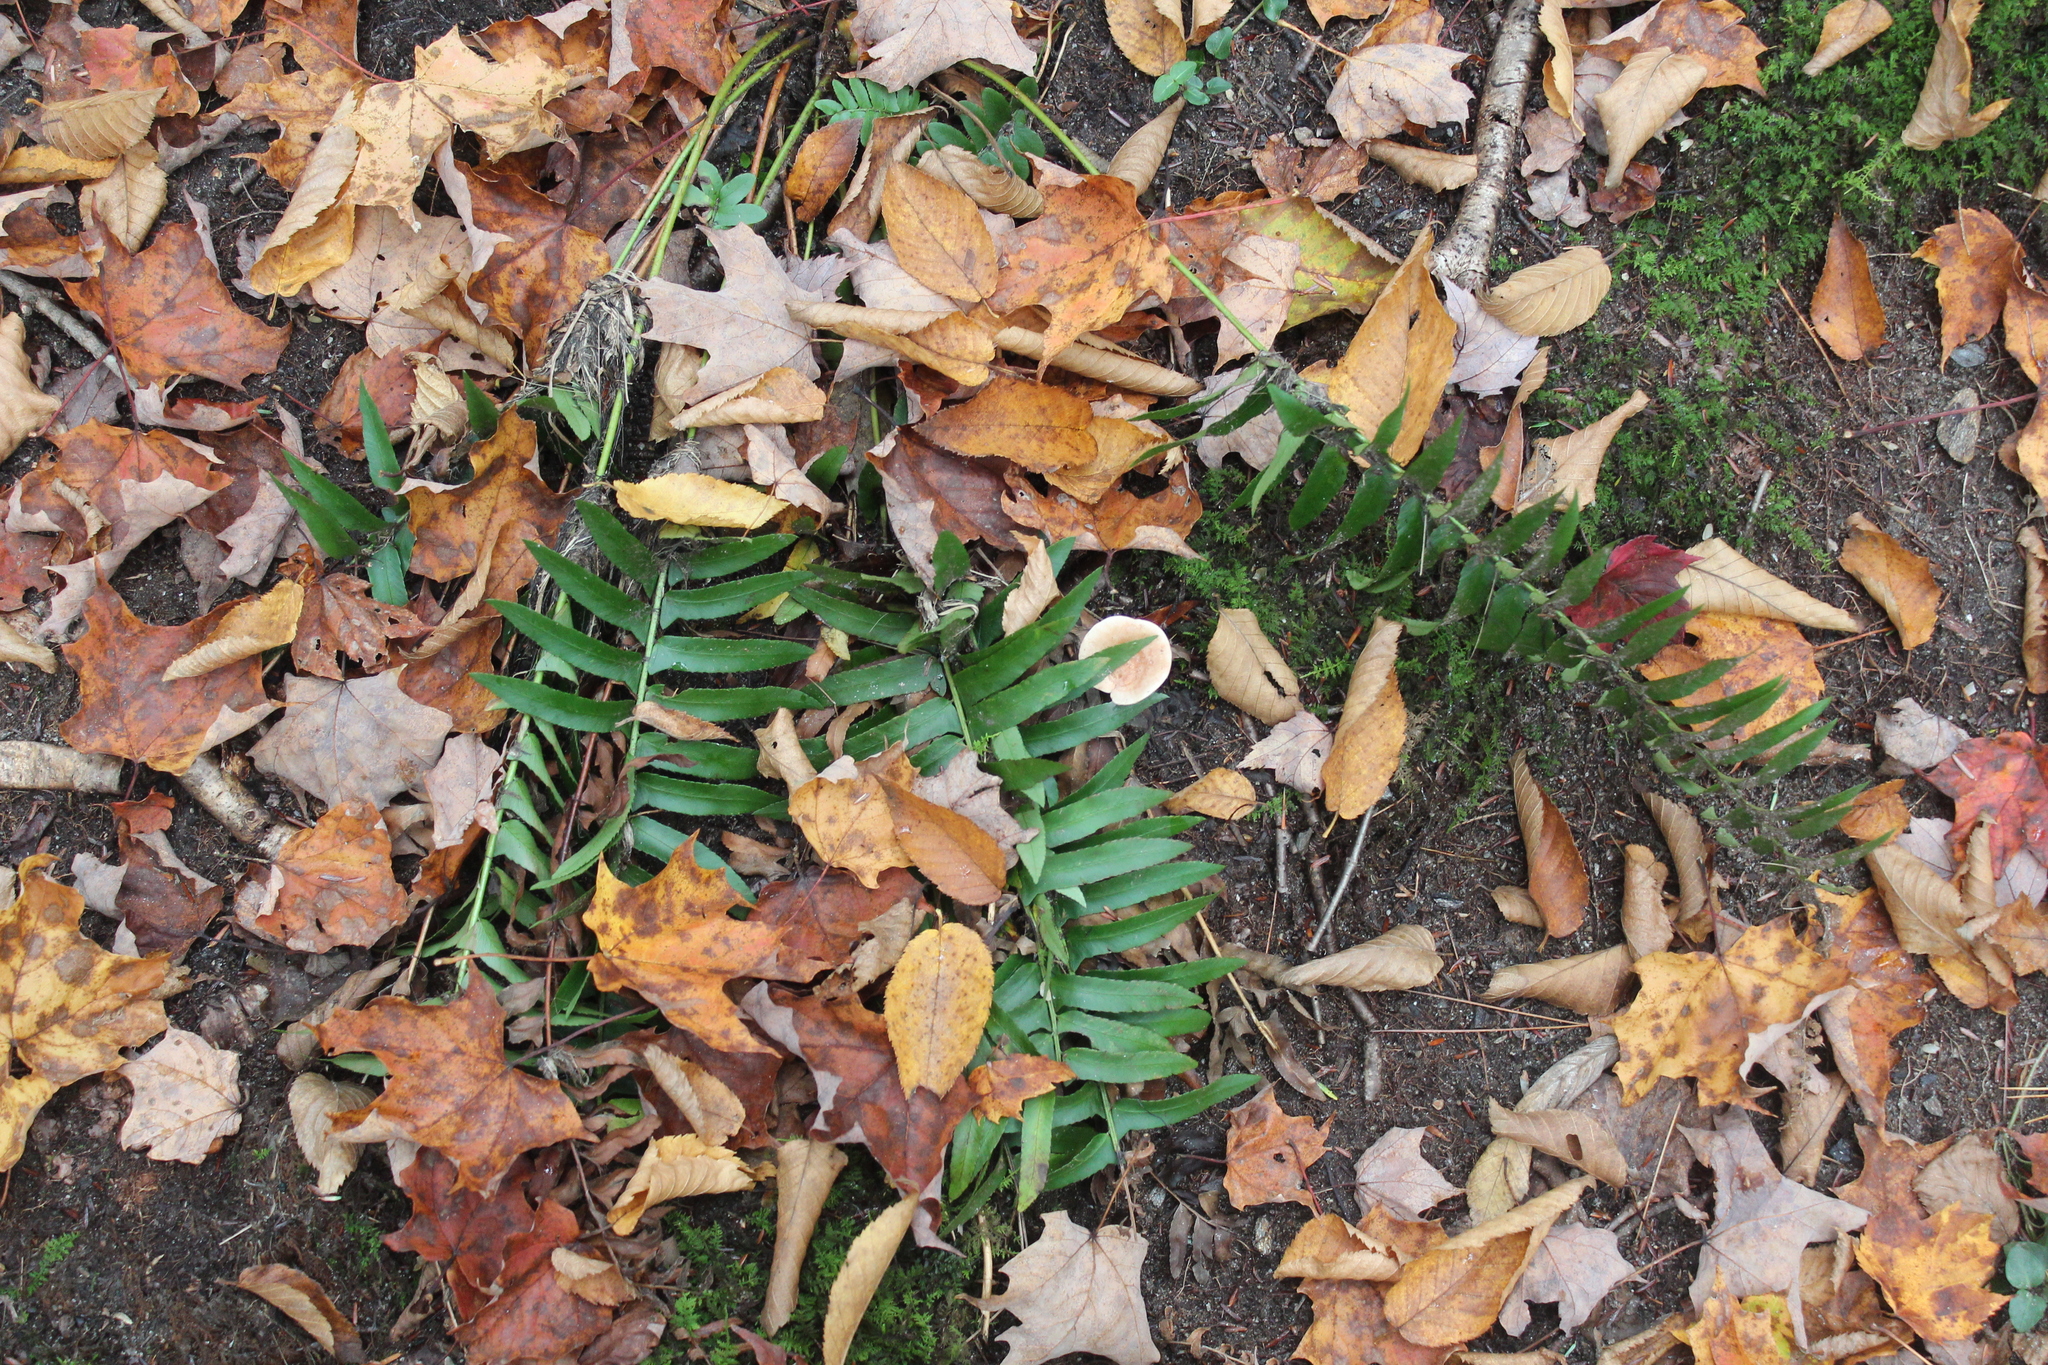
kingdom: Plantae
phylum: Tracheophyta
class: Polypodiopsida
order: Polypodiales
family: Dryopteridaceae
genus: Polystichum
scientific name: Polystichum acrostichoides
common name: Christmas fern
